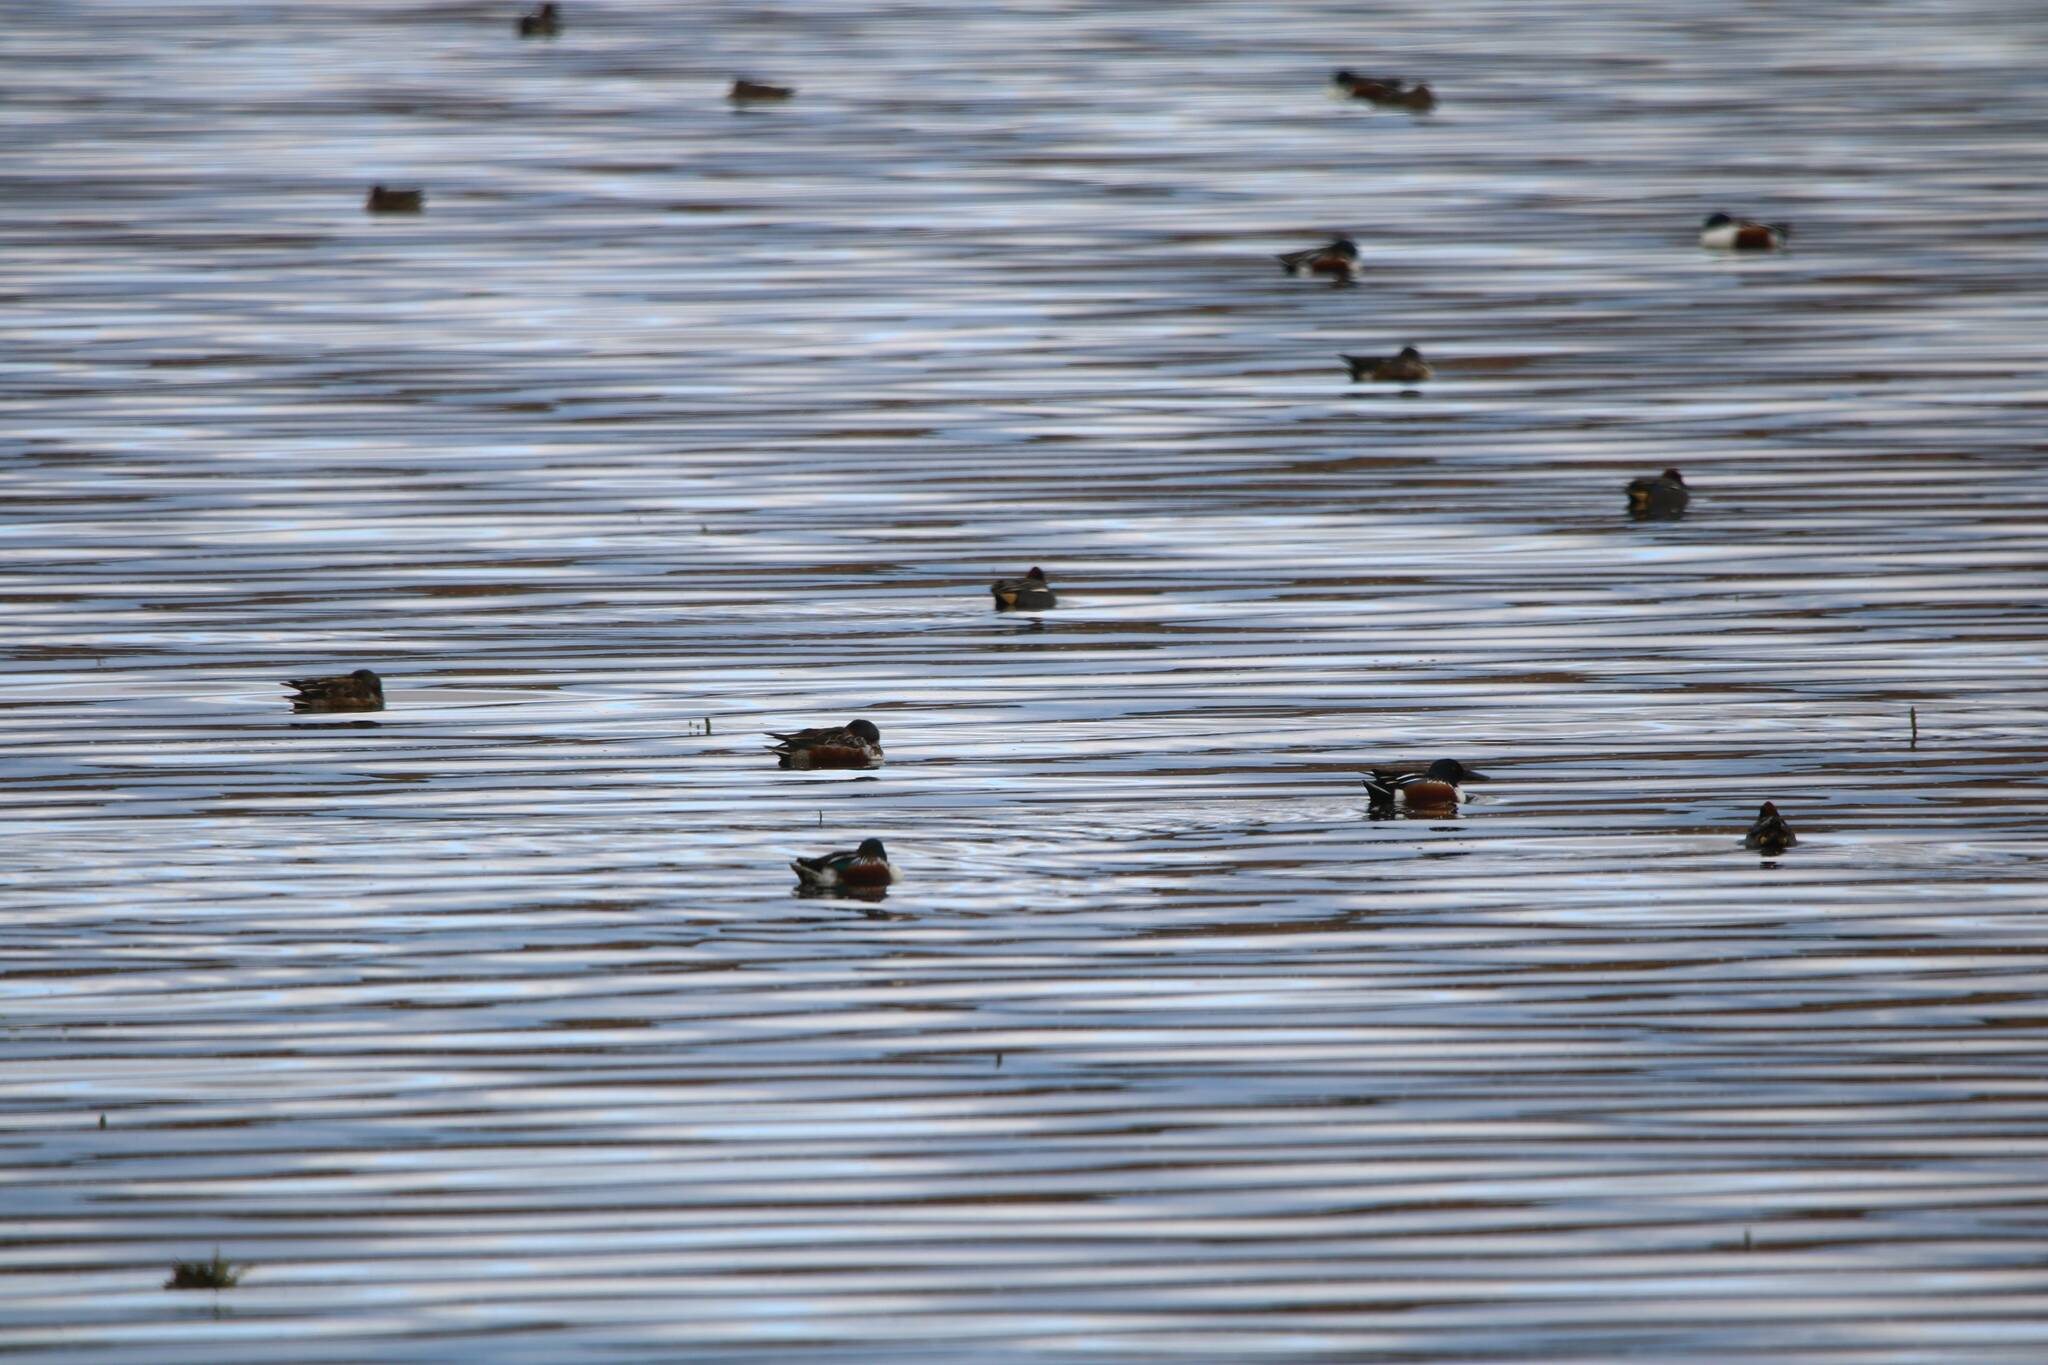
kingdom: Animalia
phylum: Chordata
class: Aves
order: Anseriformes
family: Anatidae
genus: Spatula
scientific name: Spatula clypeata
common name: Northern shoveler
